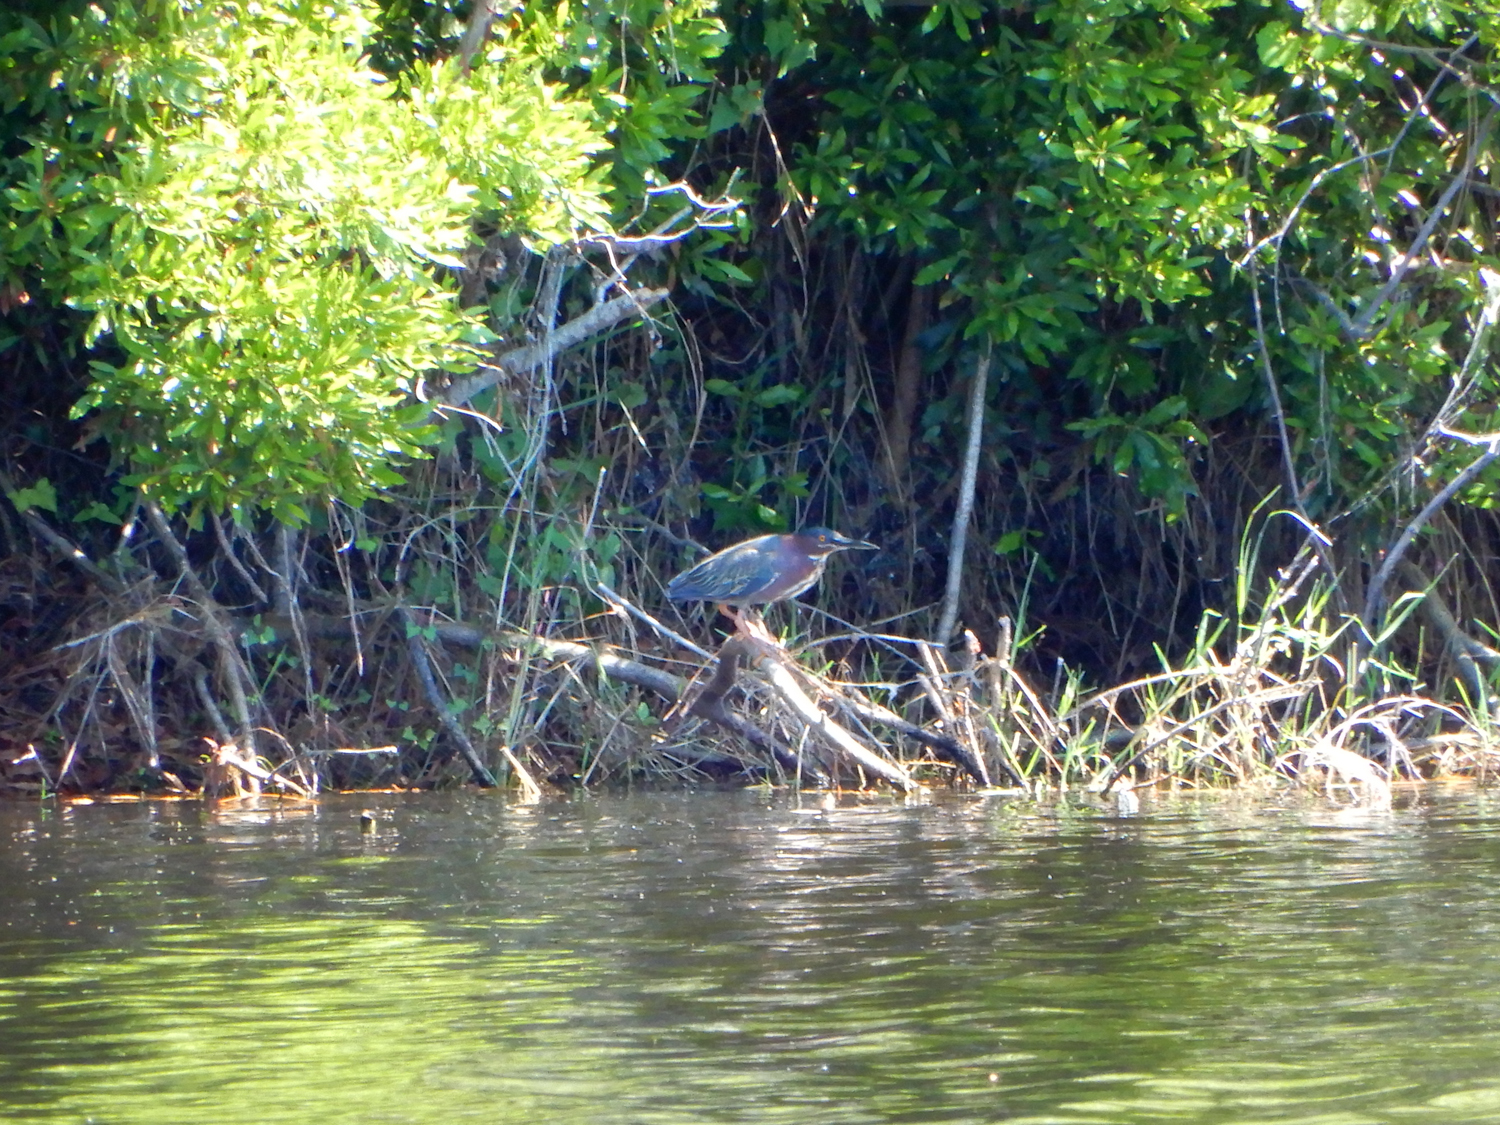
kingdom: Animalia
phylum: Chordata
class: Aves
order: Pelecaniformes
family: Ardeidae
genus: Butorides
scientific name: Butorides virescens
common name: Green heron
